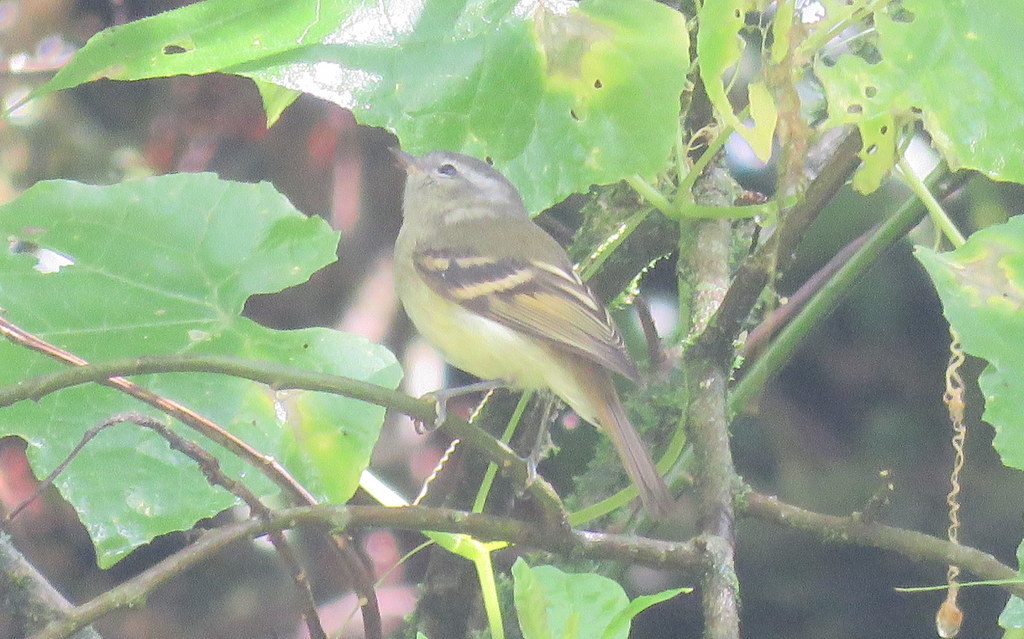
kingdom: Animalia
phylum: Chordata
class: Aves
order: Passeriformes
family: Tyrannidae
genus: Mecocerculus
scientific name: Mecocerculus hellmayri
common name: Buff-banded tyrannulet
